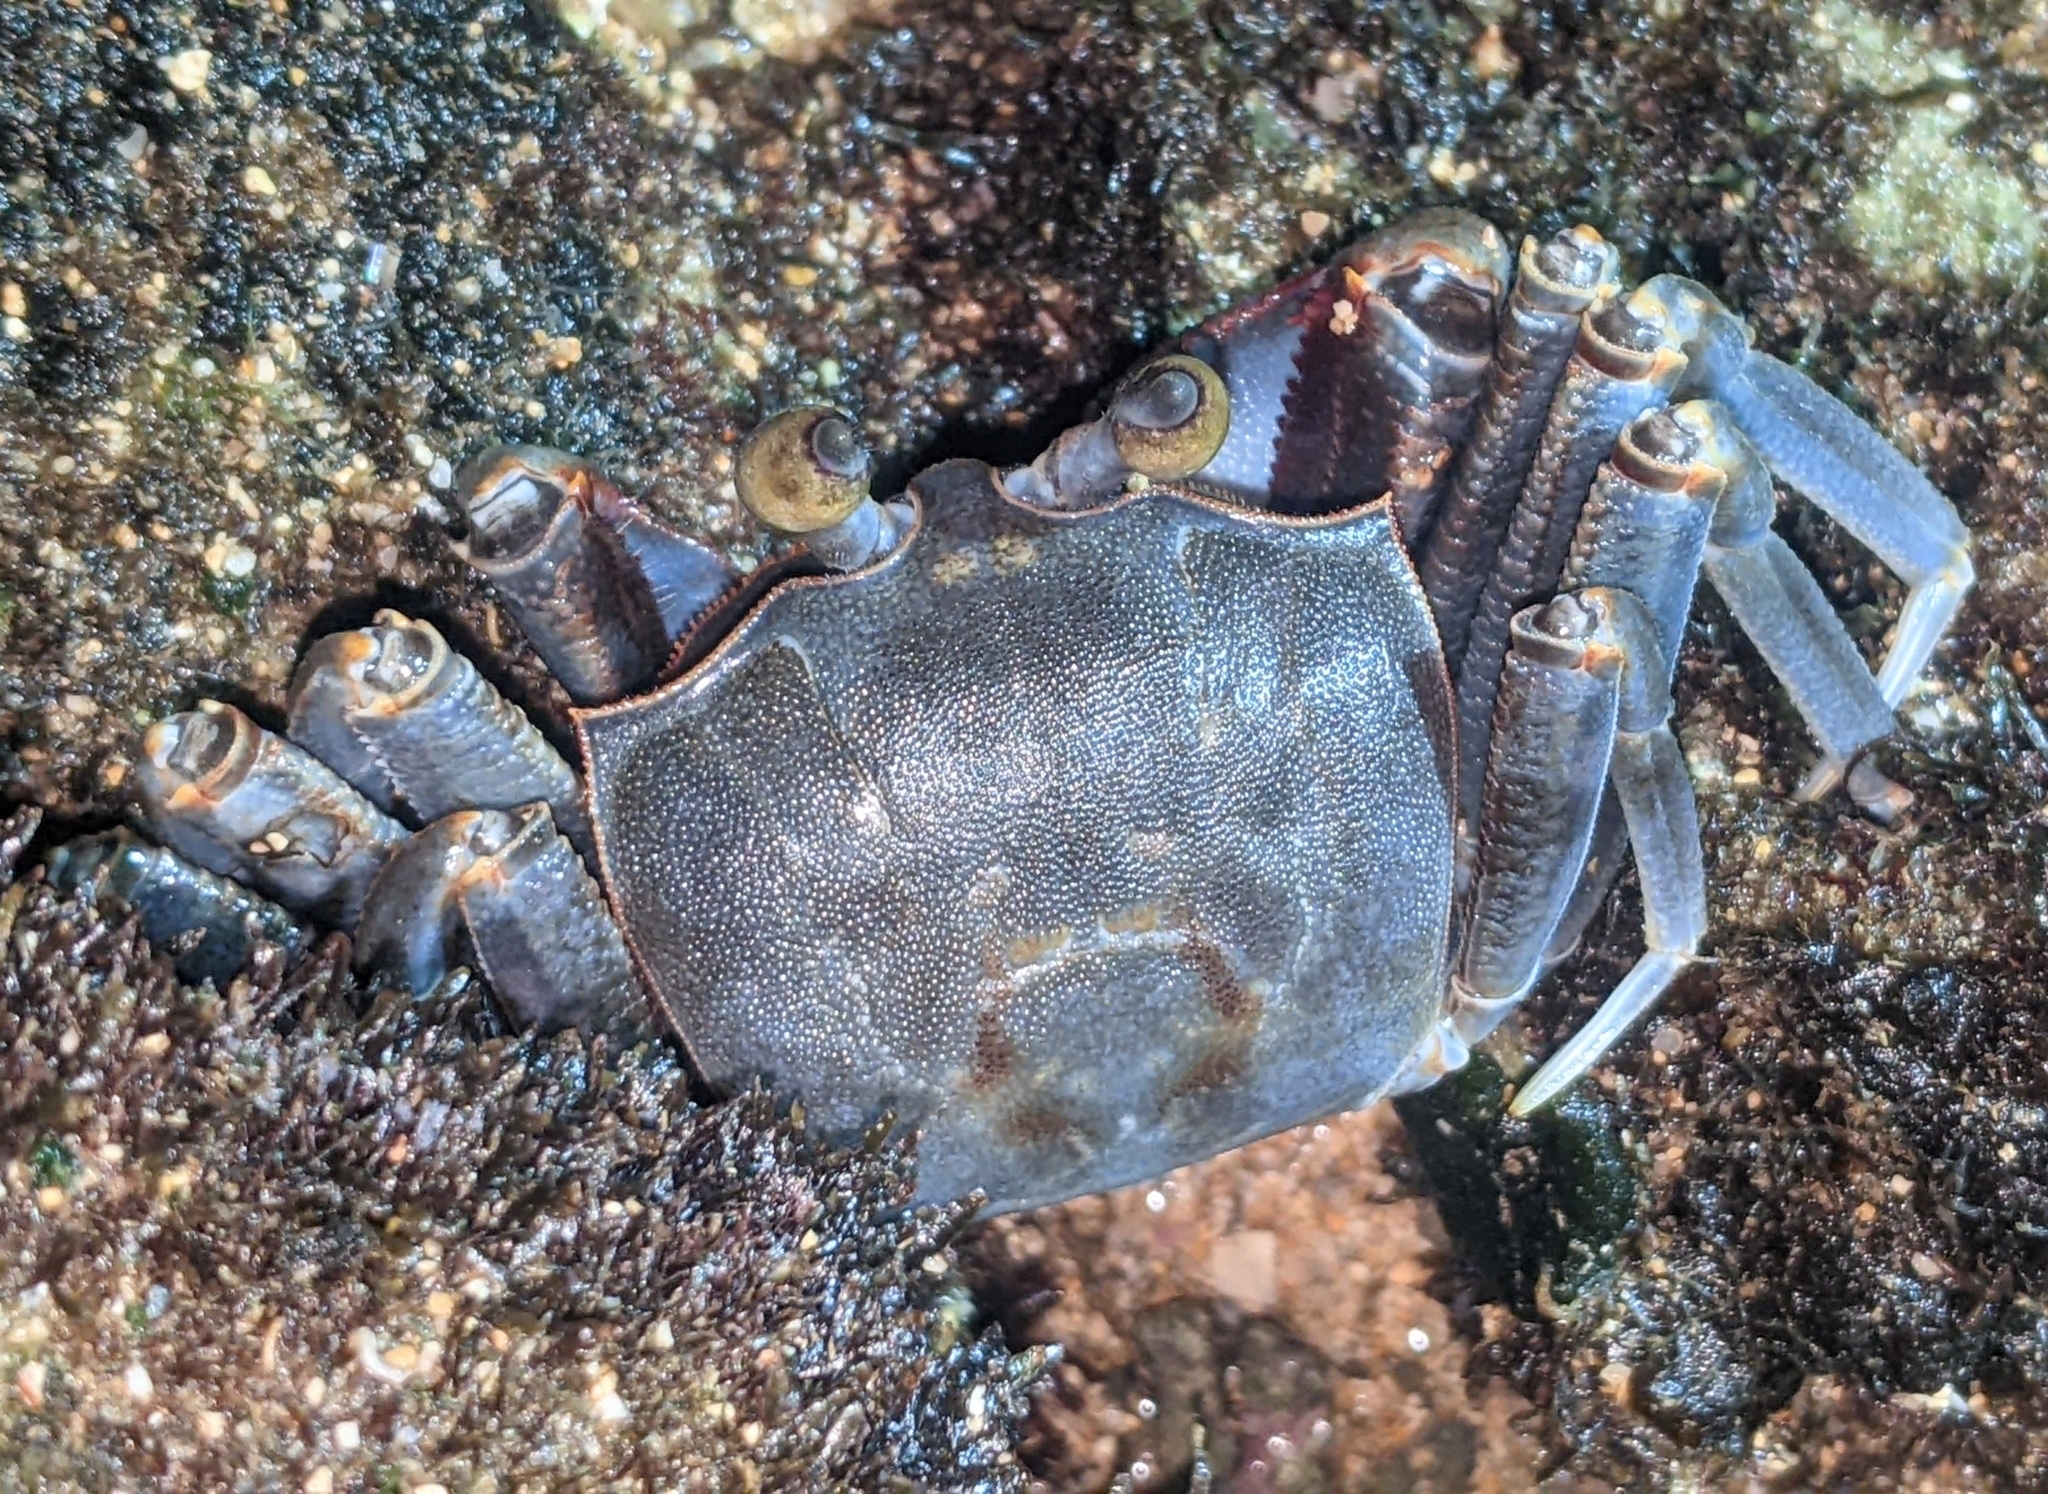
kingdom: Animalia
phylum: Arthropoda
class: Malacostraca
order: Decapoda
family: Ocypodidae
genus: Ocypode
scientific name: Ocypode ceratophthalmus
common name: Indo-pacific ghost crab
